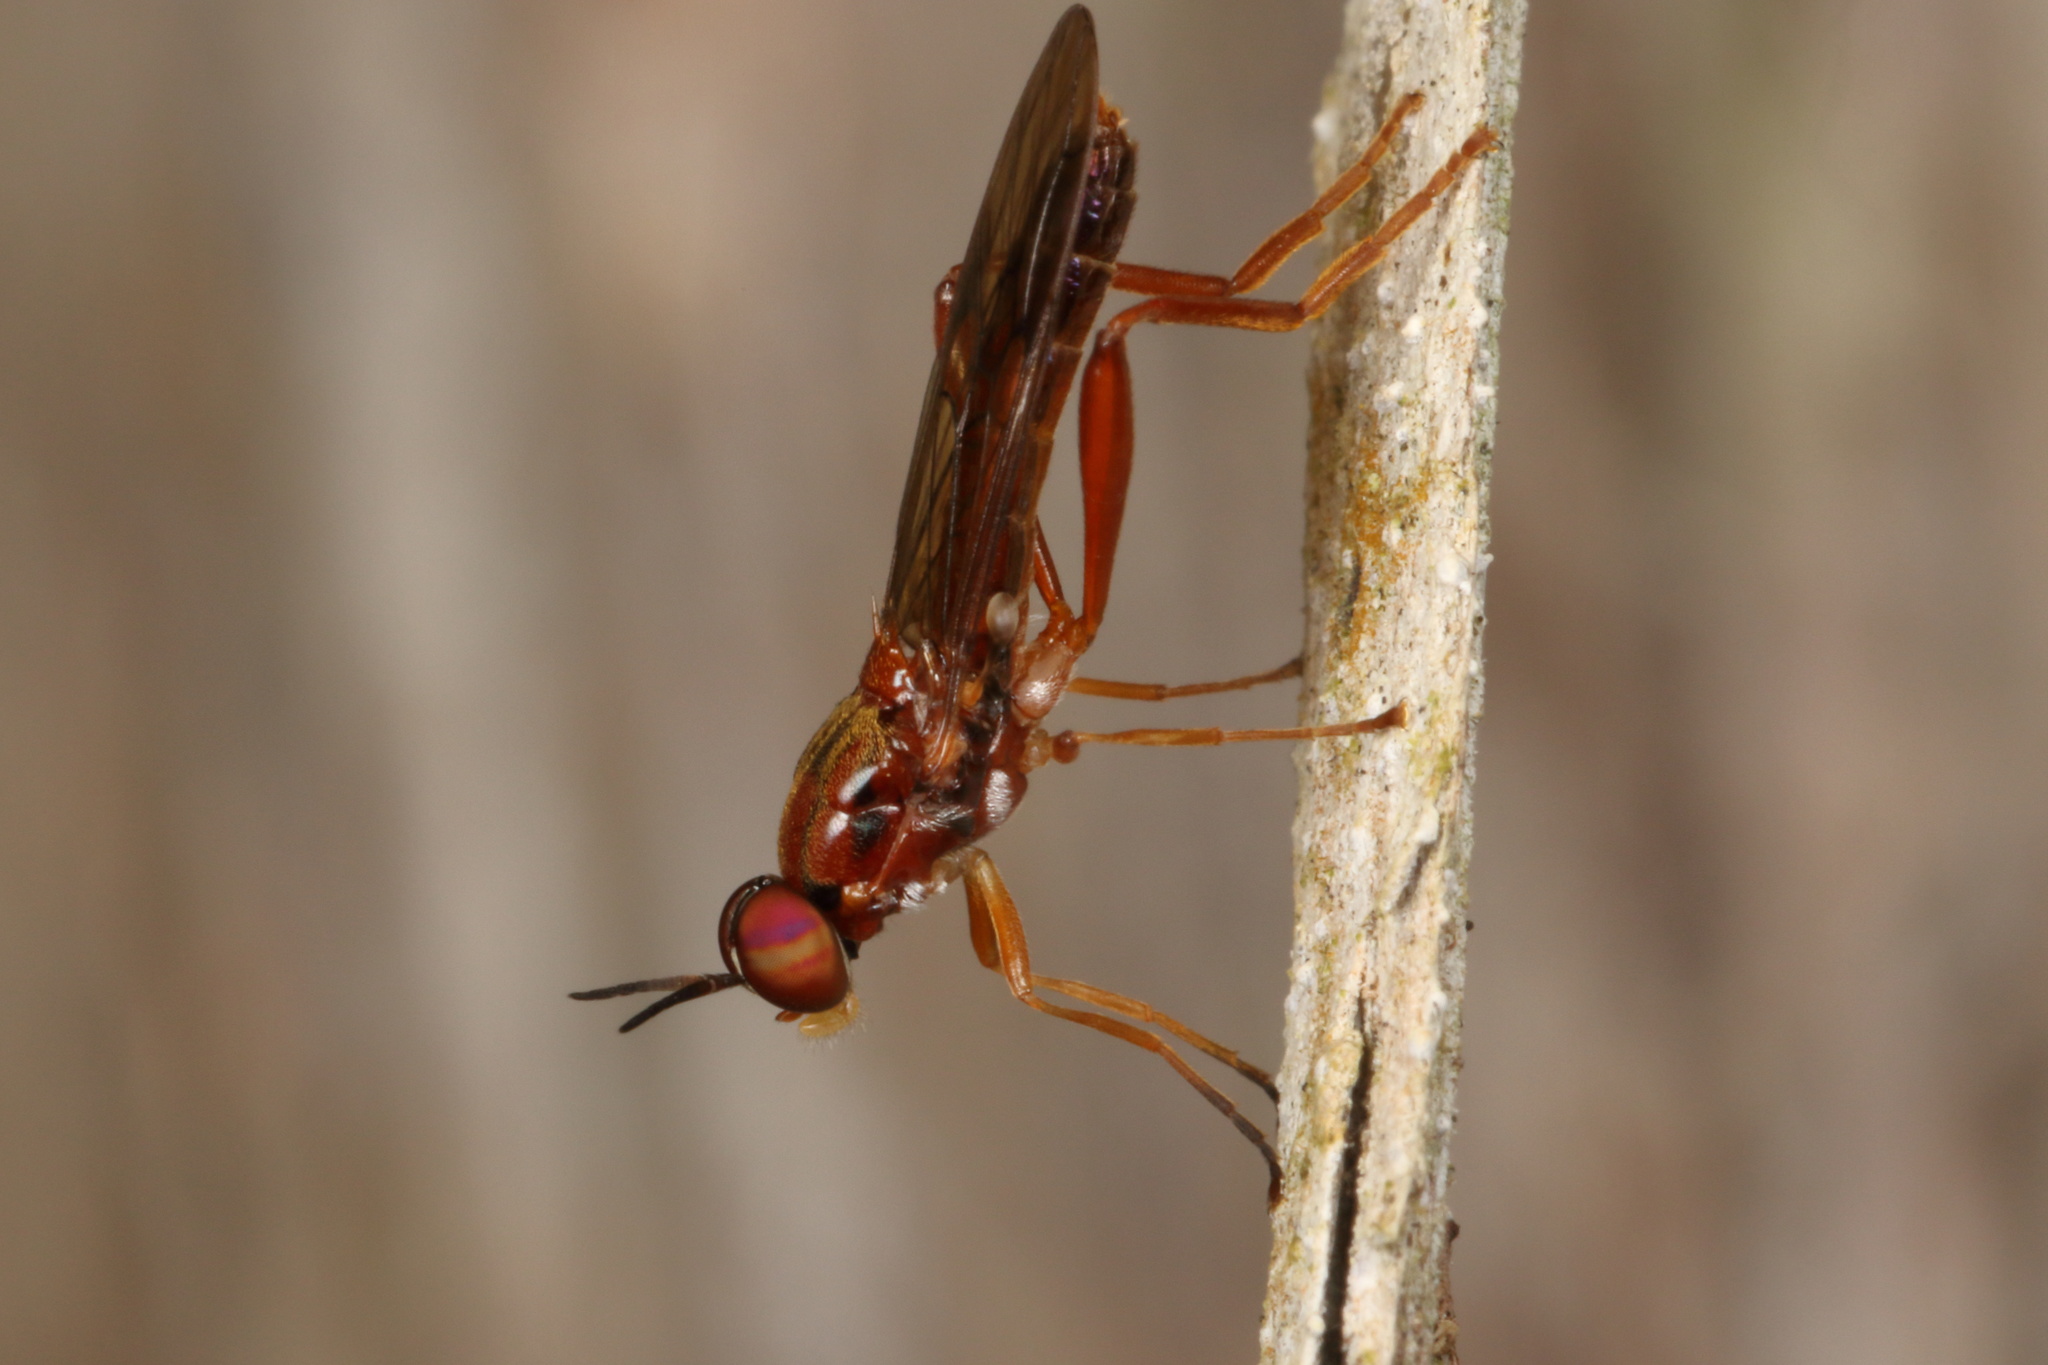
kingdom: Animalia
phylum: Arthropoda
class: Insecta
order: Diptera
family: Stratiomyidae
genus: Benhamyia
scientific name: Benhamyia straznitzkii
